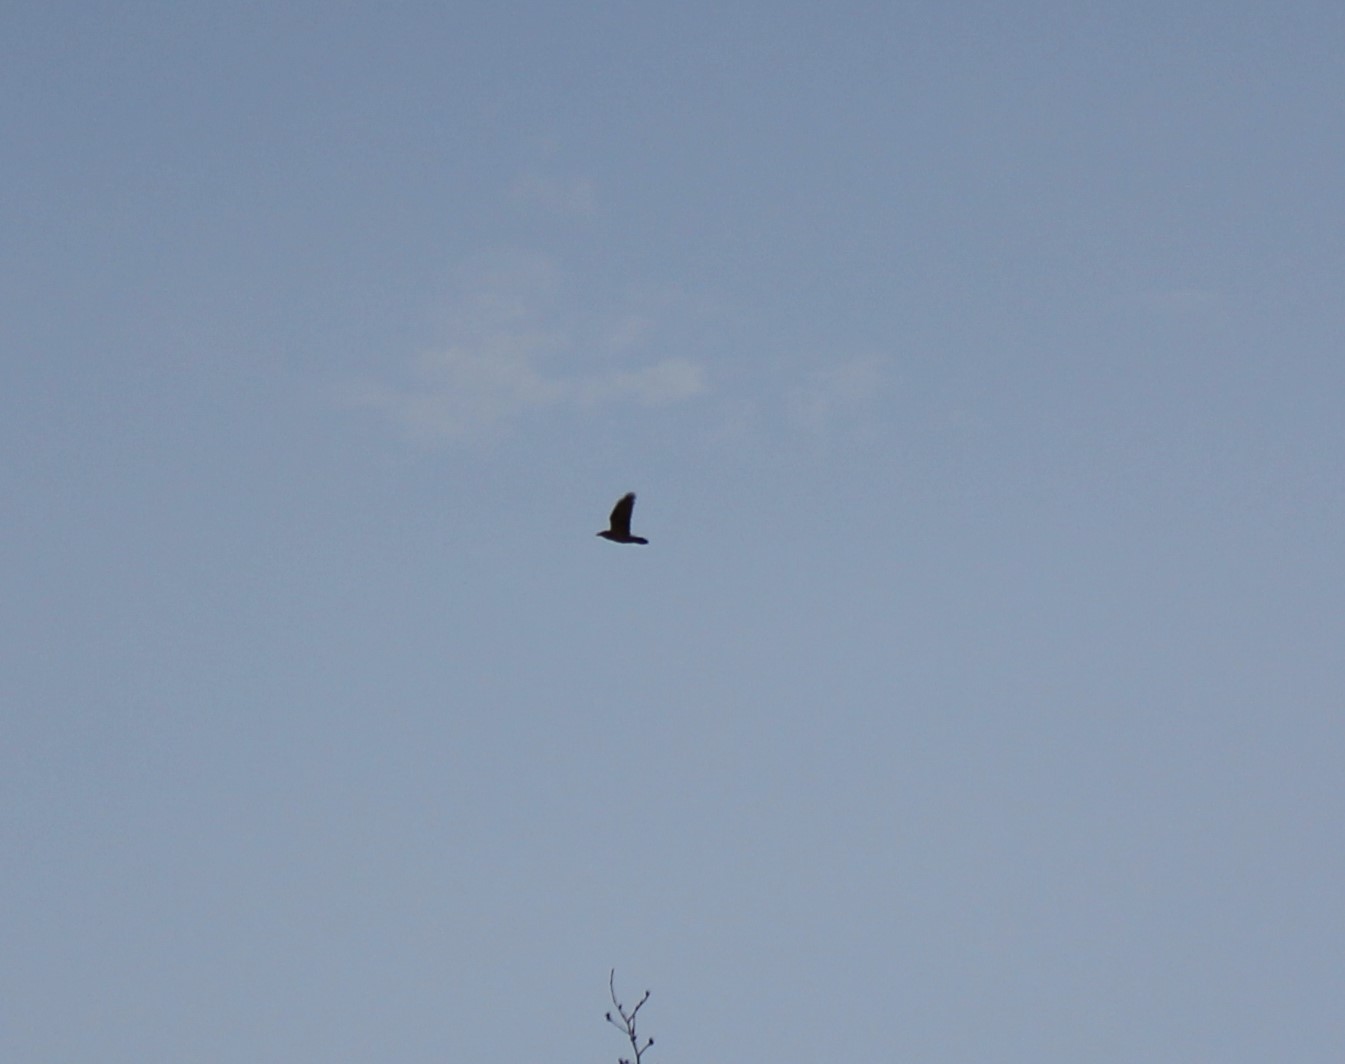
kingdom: Animalia
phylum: Chordata
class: Aves
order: Passeriformes
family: Corvidae
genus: Corvus
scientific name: Corvus corax
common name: Common raven
